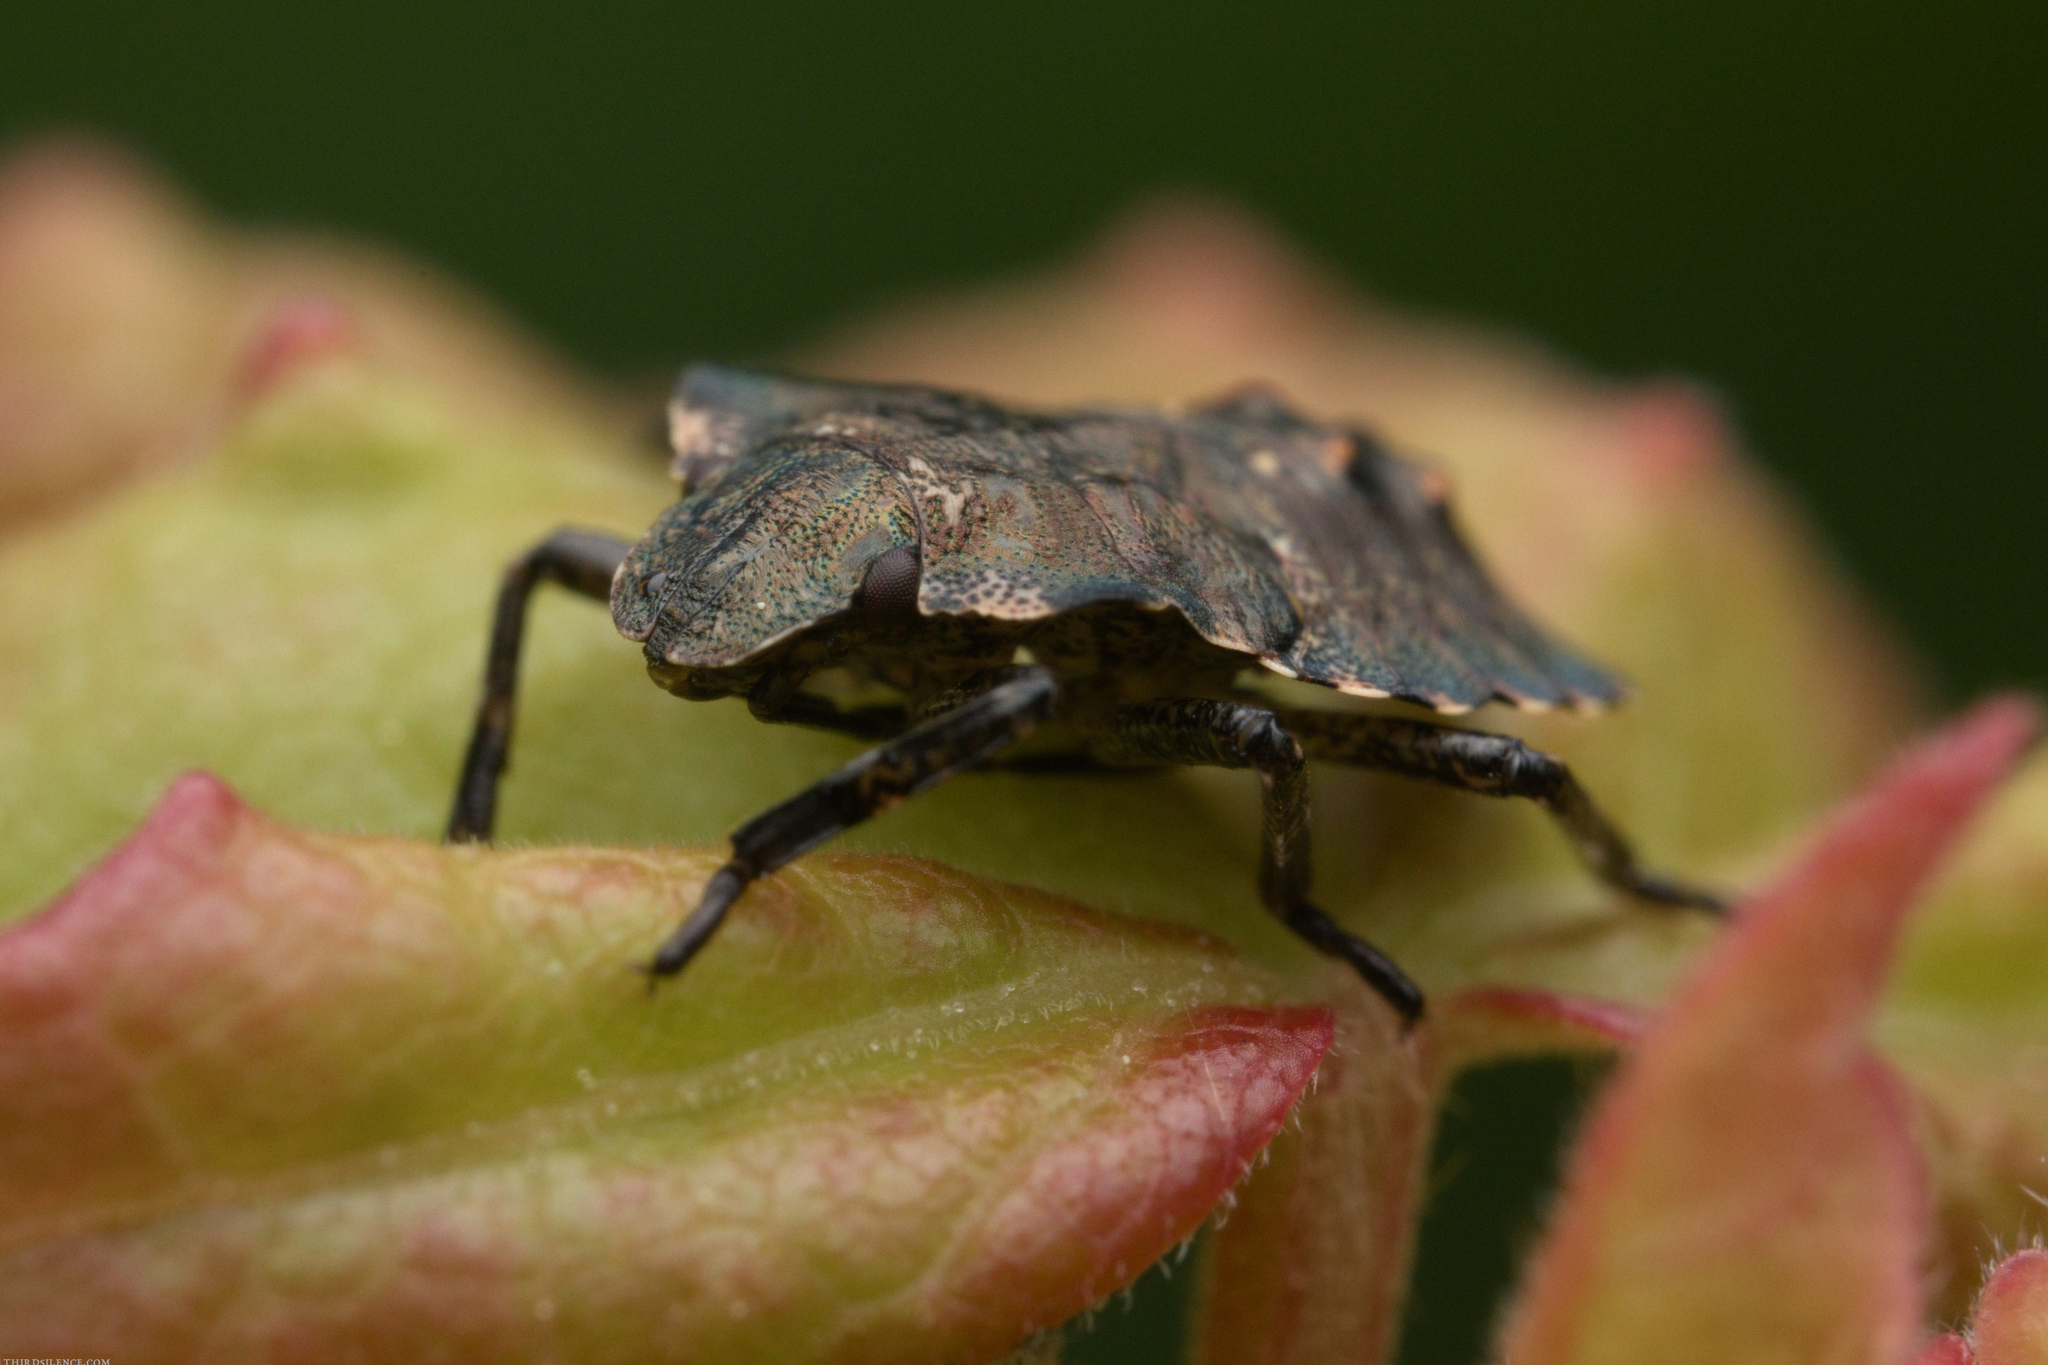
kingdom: Animalia
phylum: Arthropoda
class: Insecta
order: Hemiptera
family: Pentatomidae
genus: Pentatoma
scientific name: Pentatoma rufipes
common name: Forest bug
